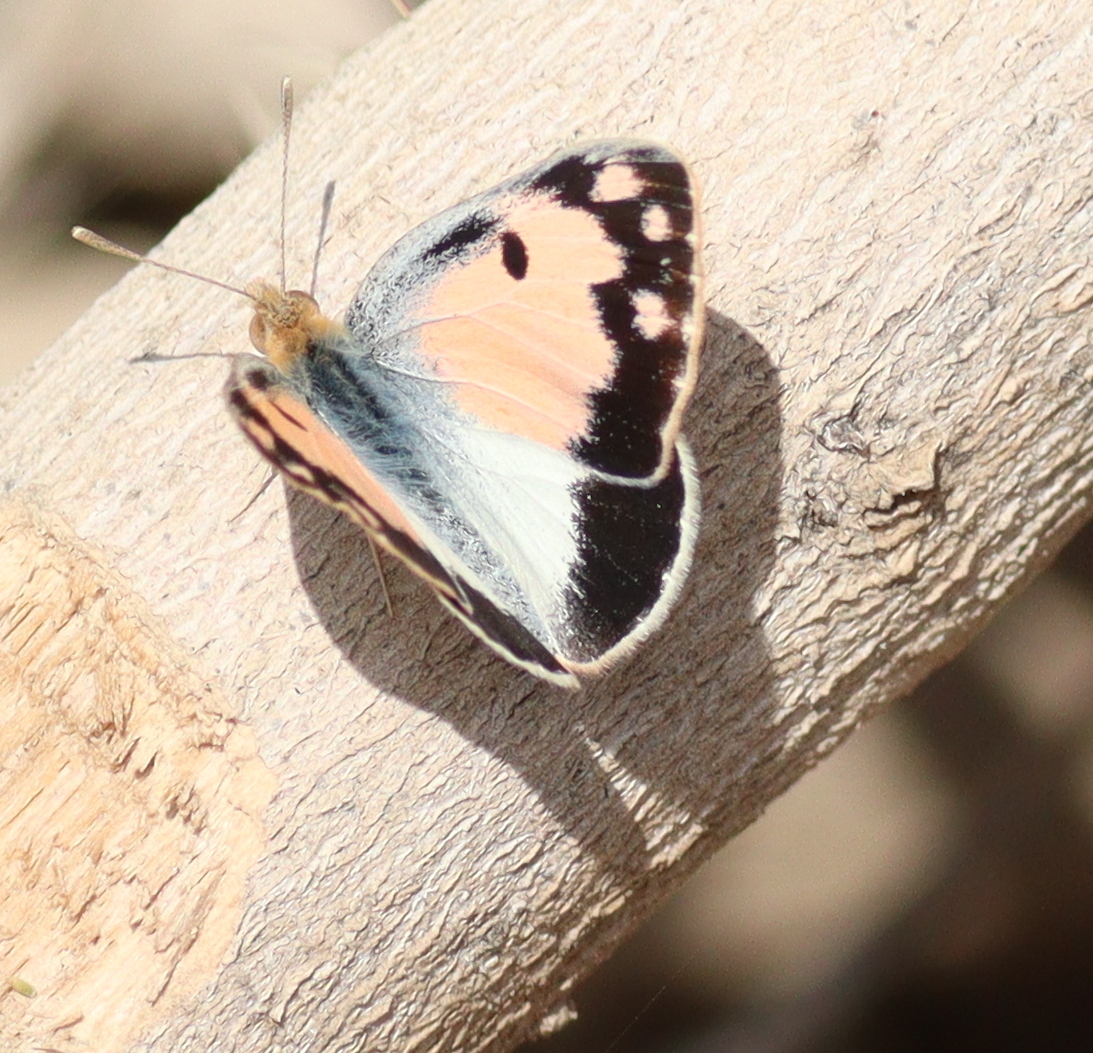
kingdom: Animalia
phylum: Arthropoda
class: Insecta
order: Lepidoptera
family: Pieridae
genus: Colotis
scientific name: Colotis phisadia
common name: Blue spotted arab
